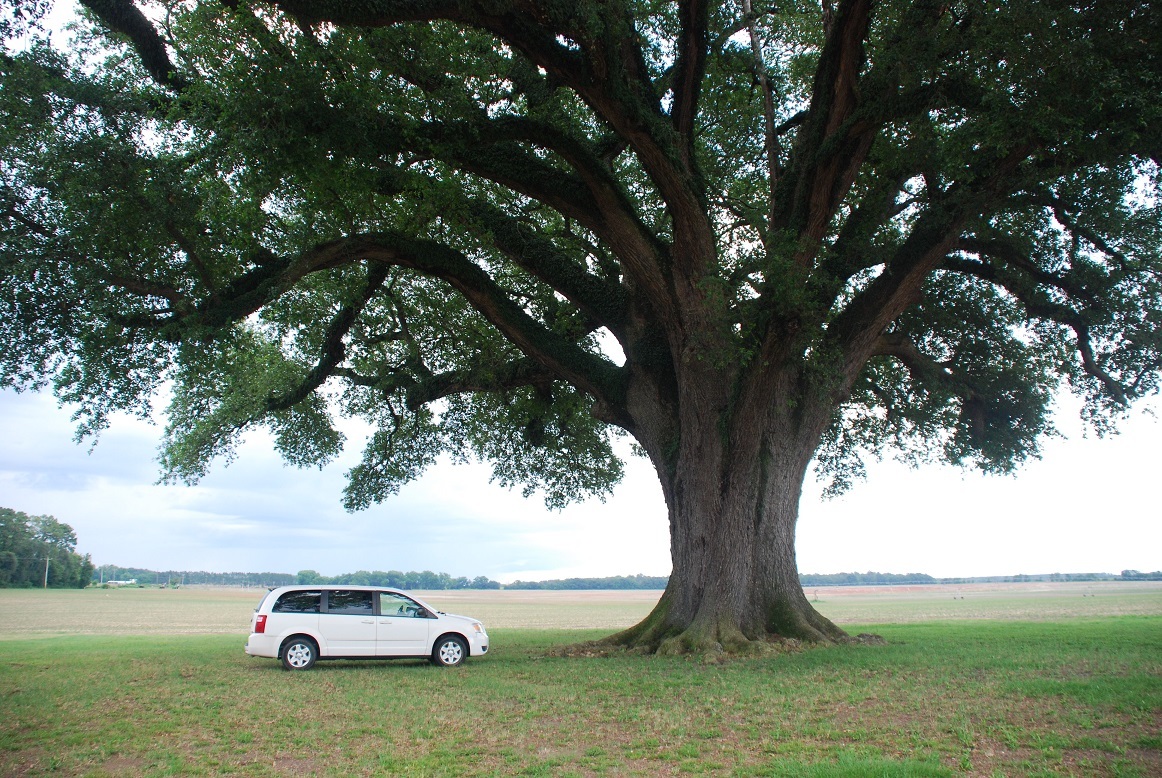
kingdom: Plantae
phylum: Tracheophyta
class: Magnoliopsida
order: Fagales
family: Fagaceae
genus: Quercus
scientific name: Quercus virginiana
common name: Southern live oak
